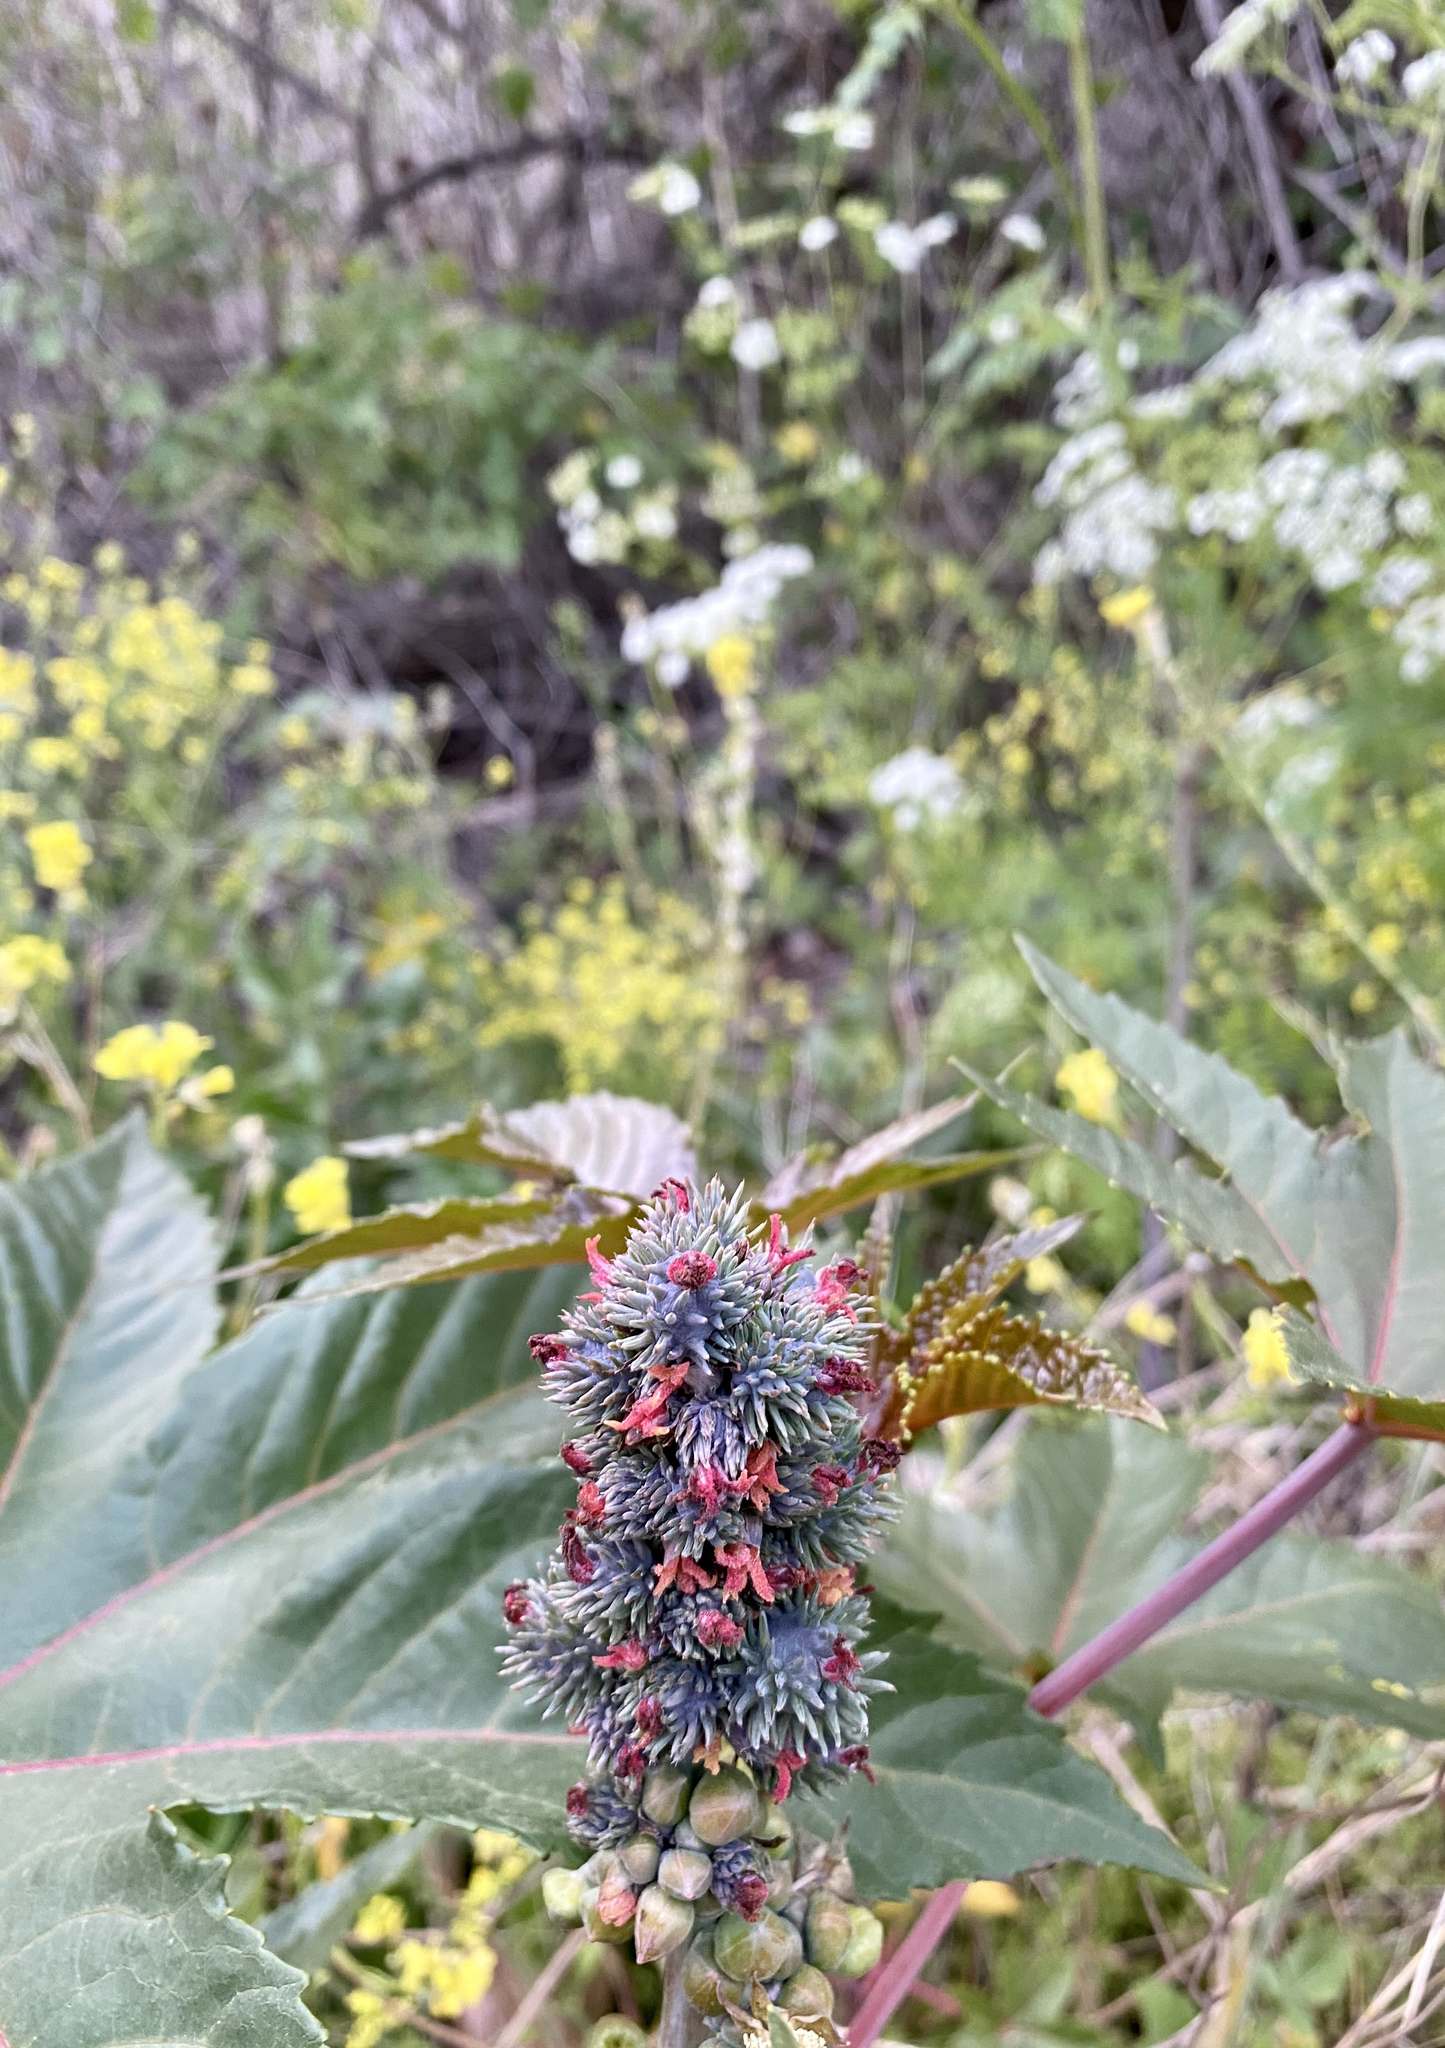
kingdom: Plantae
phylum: Tracheophyta
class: Magnoliopsida
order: Malpighiales
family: Euphorbiaceae
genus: Ricinus
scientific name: Ricinus communis
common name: Castor-oil-plant
